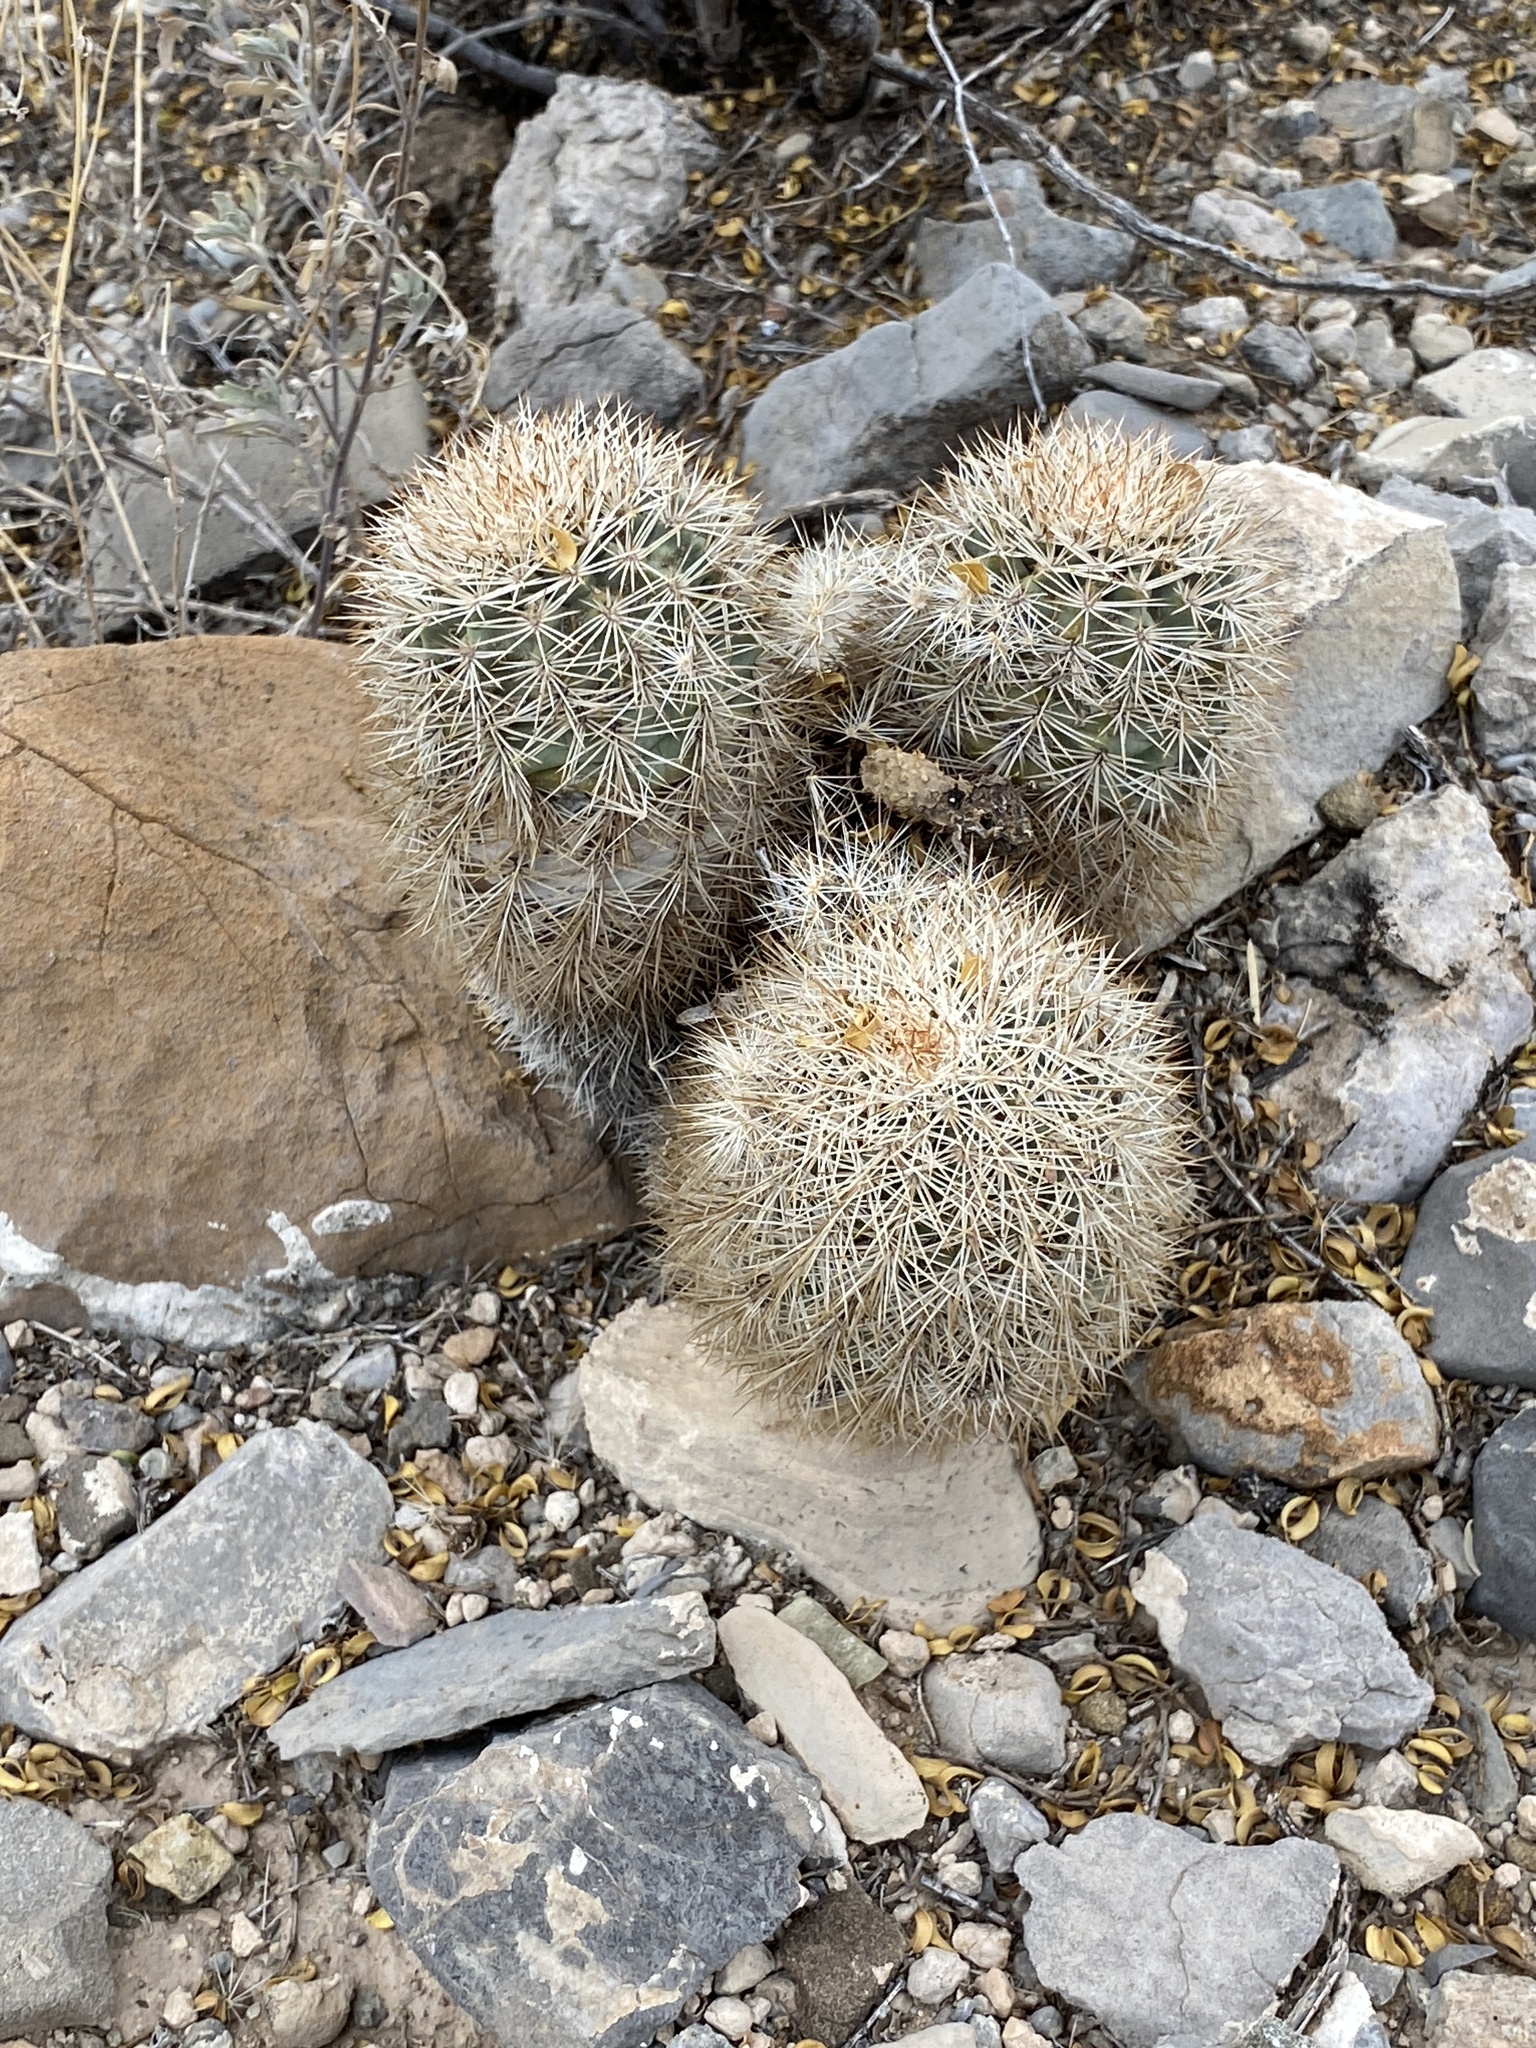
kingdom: Plantae
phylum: Tracheophyta
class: Magnoliopsida
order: Caryophyllales
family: Cactaceae
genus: Echinocereus
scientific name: Echinocereus dasyacanthus
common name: Spiny hedgehog cactus
